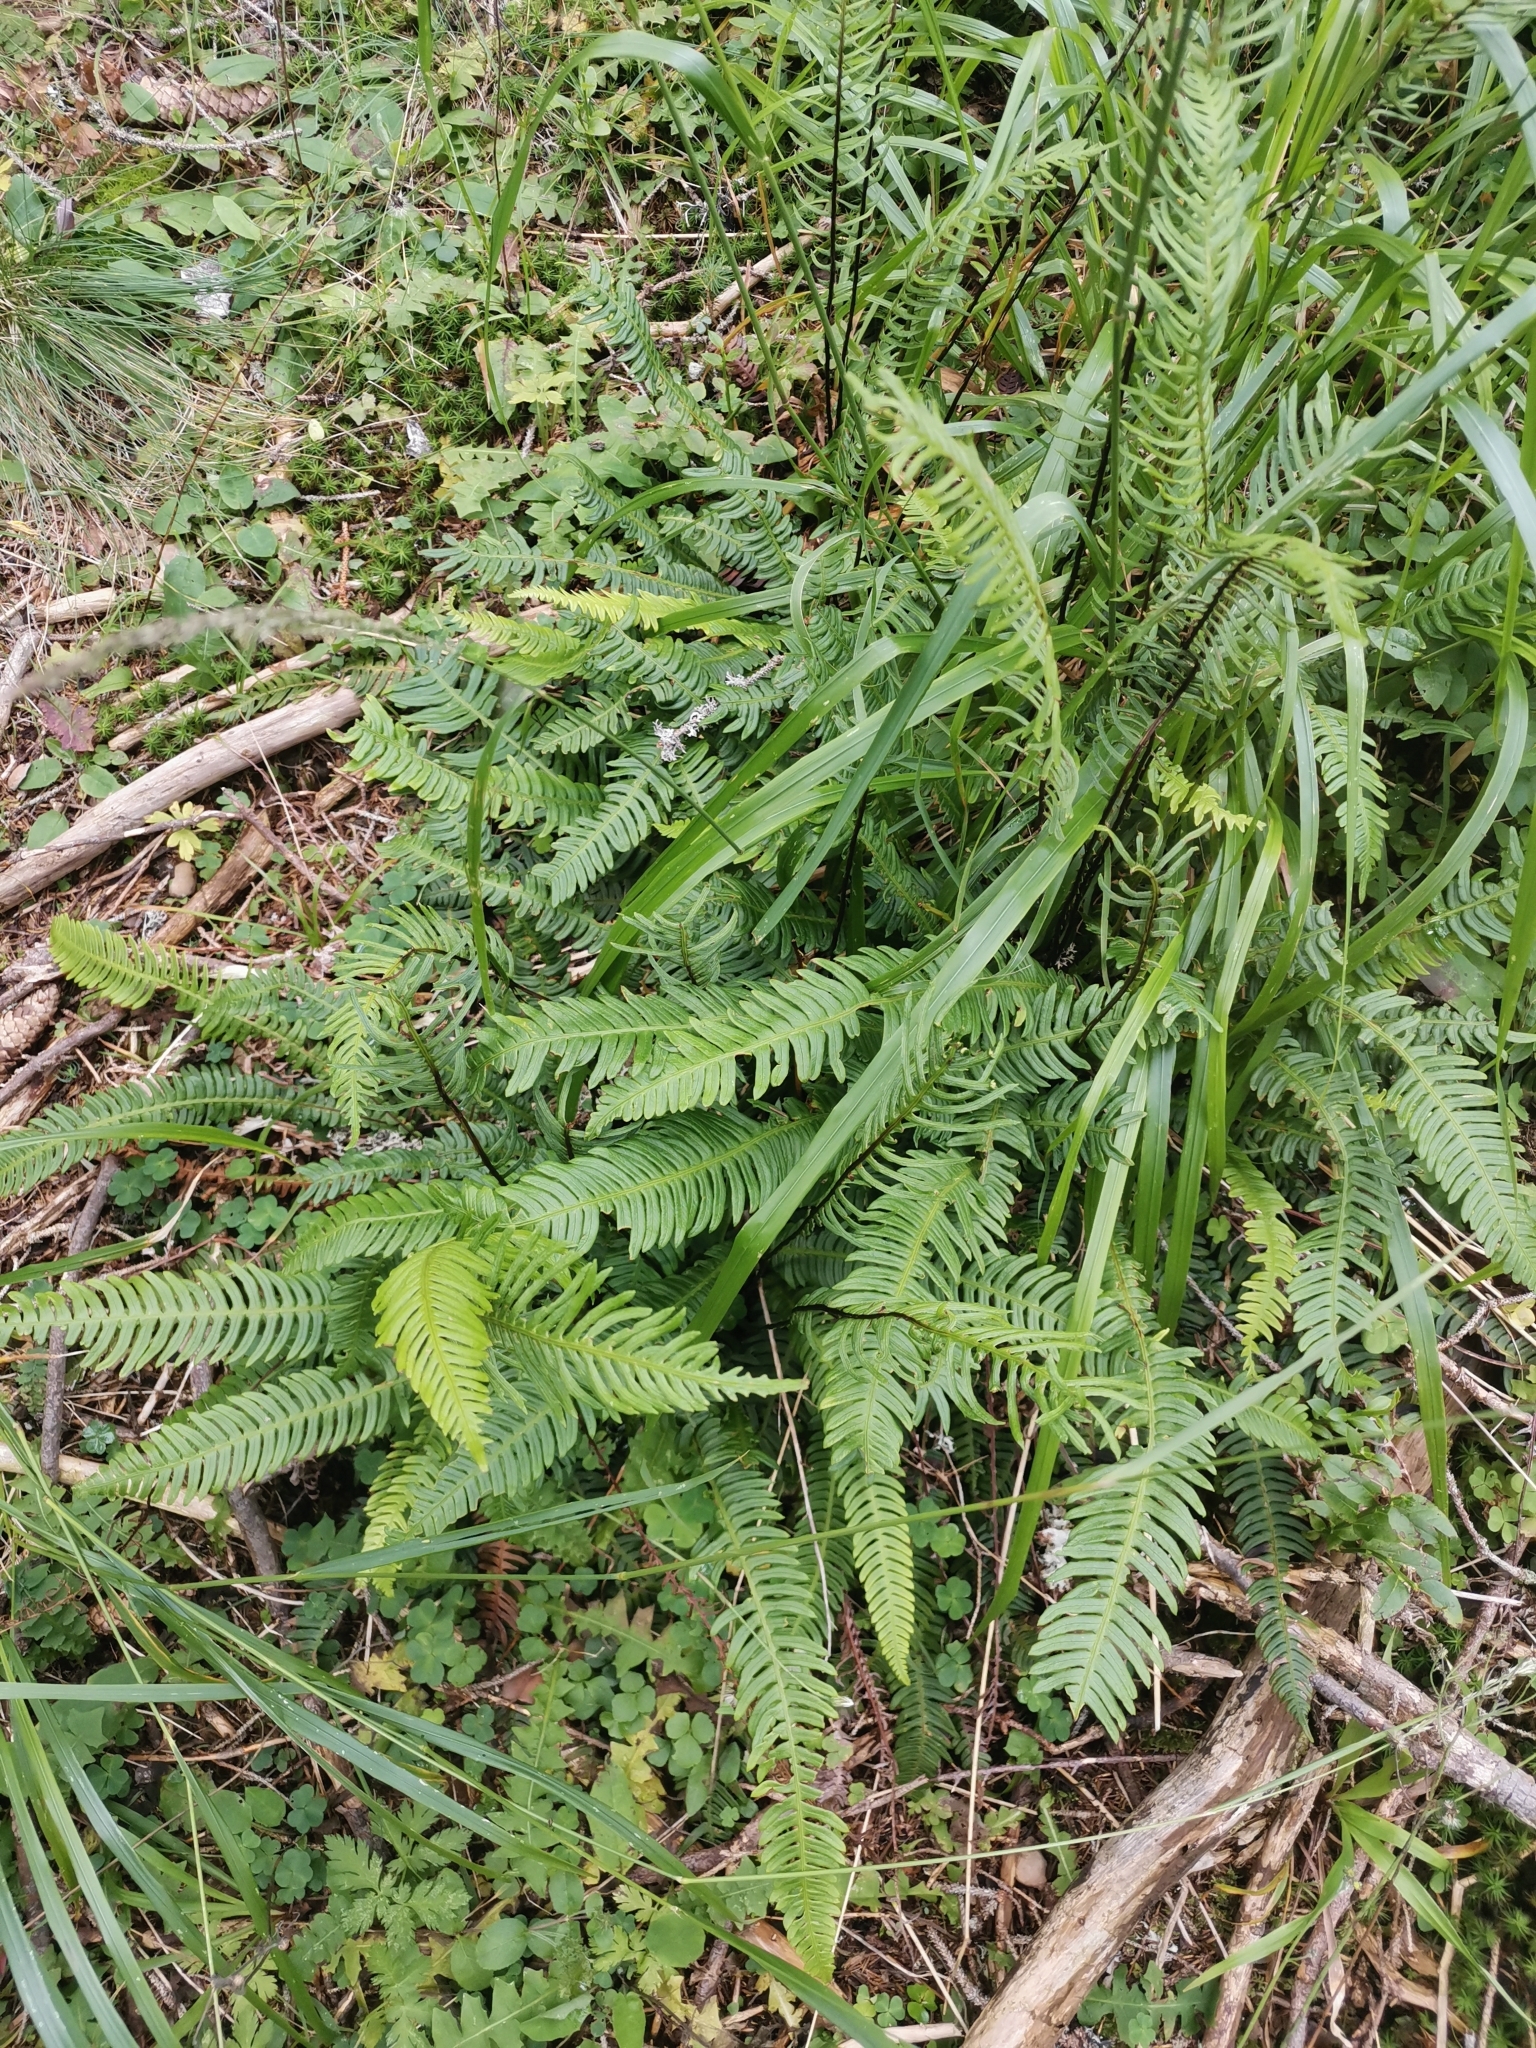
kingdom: Plantae
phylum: Tracheophyta
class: Polypodiopsida
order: Polypodiales
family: Blechnaceae
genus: Struthiopteris
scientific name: Struthiopteris spicant
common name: Deer fern
